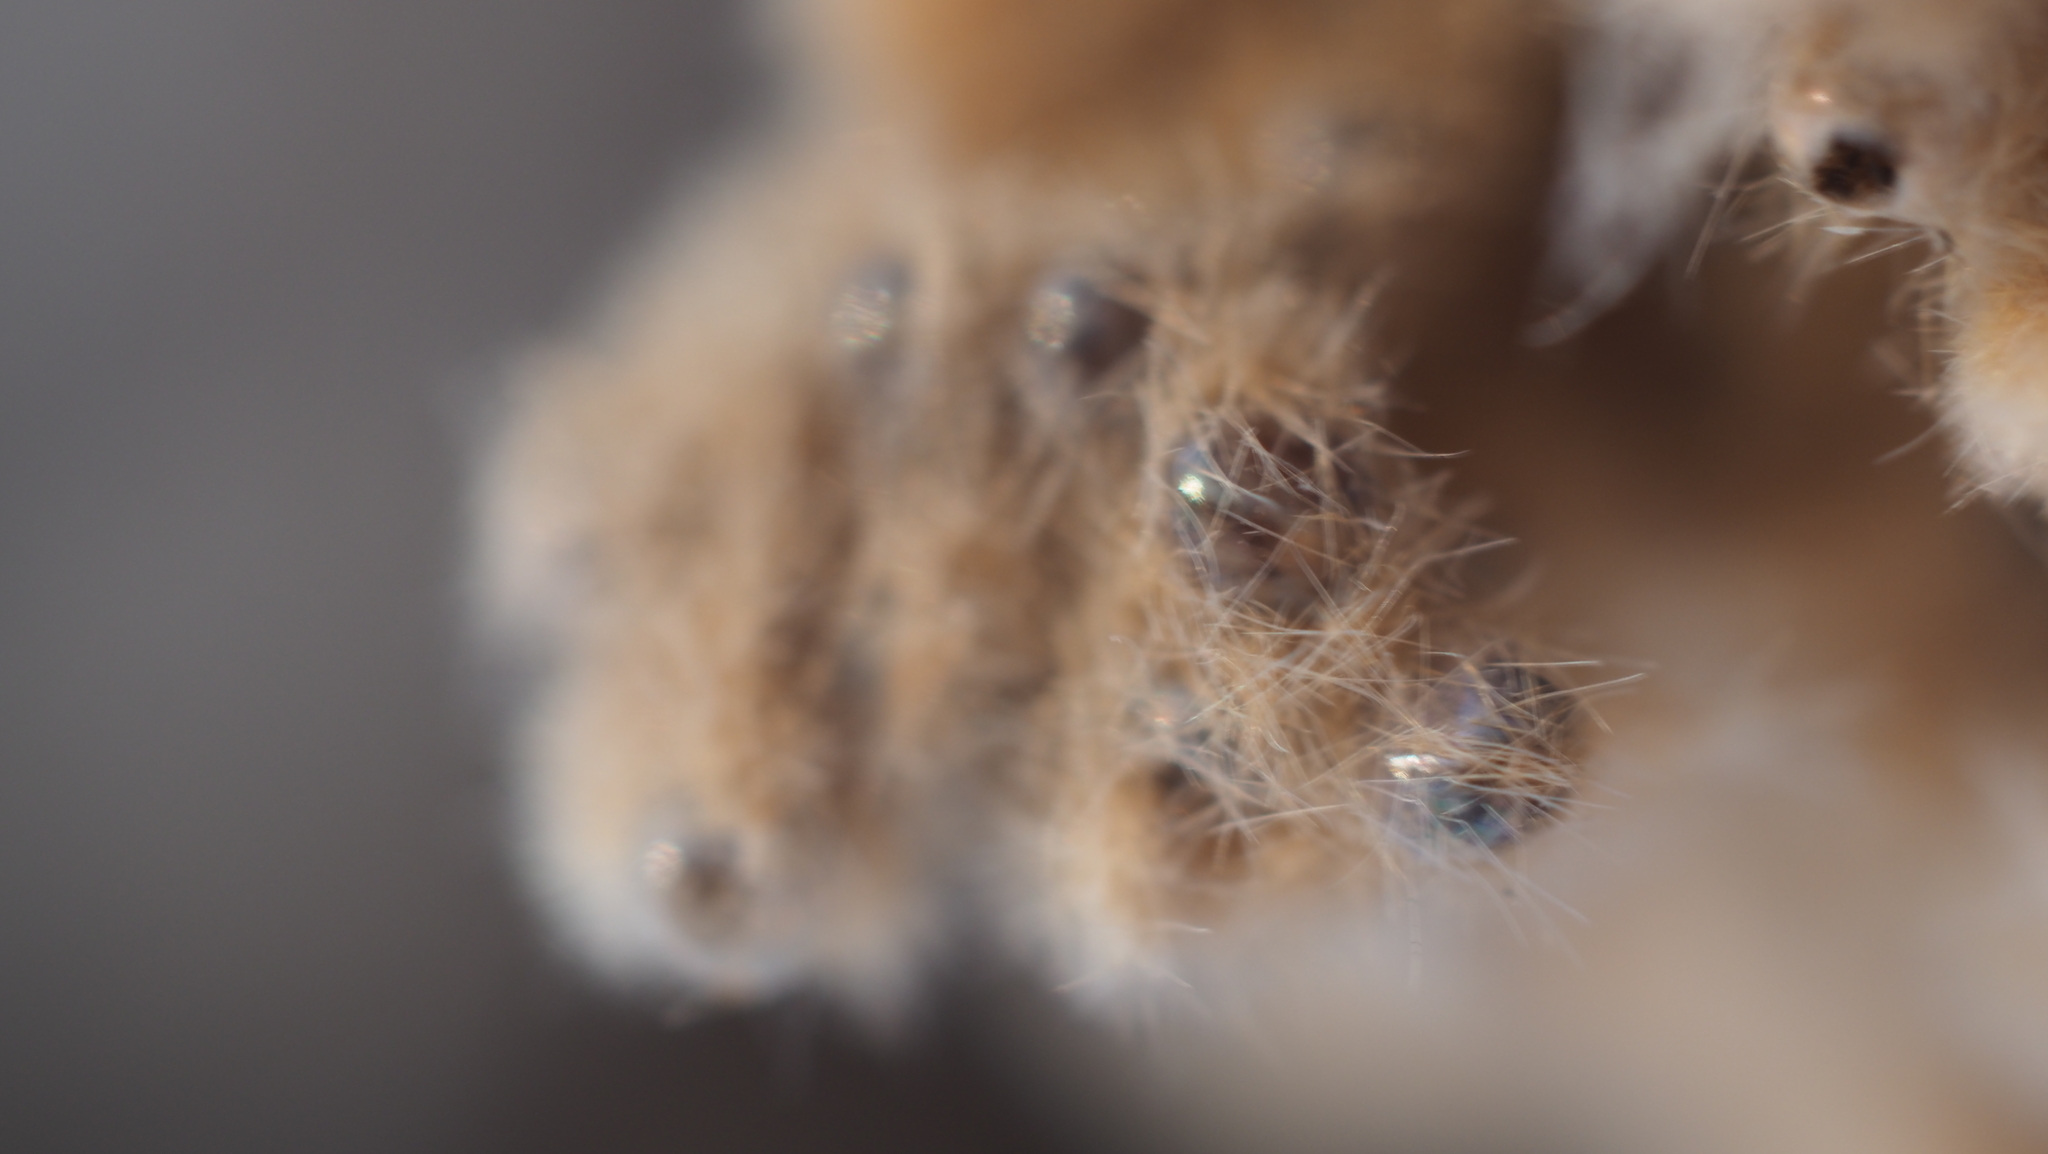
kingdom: Animalia
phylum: Arthropoda
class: Insecta
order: Lepidoptera
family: Erebidae
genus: Lymantria
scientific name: Lymantria dispar
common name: Gypsy moth
